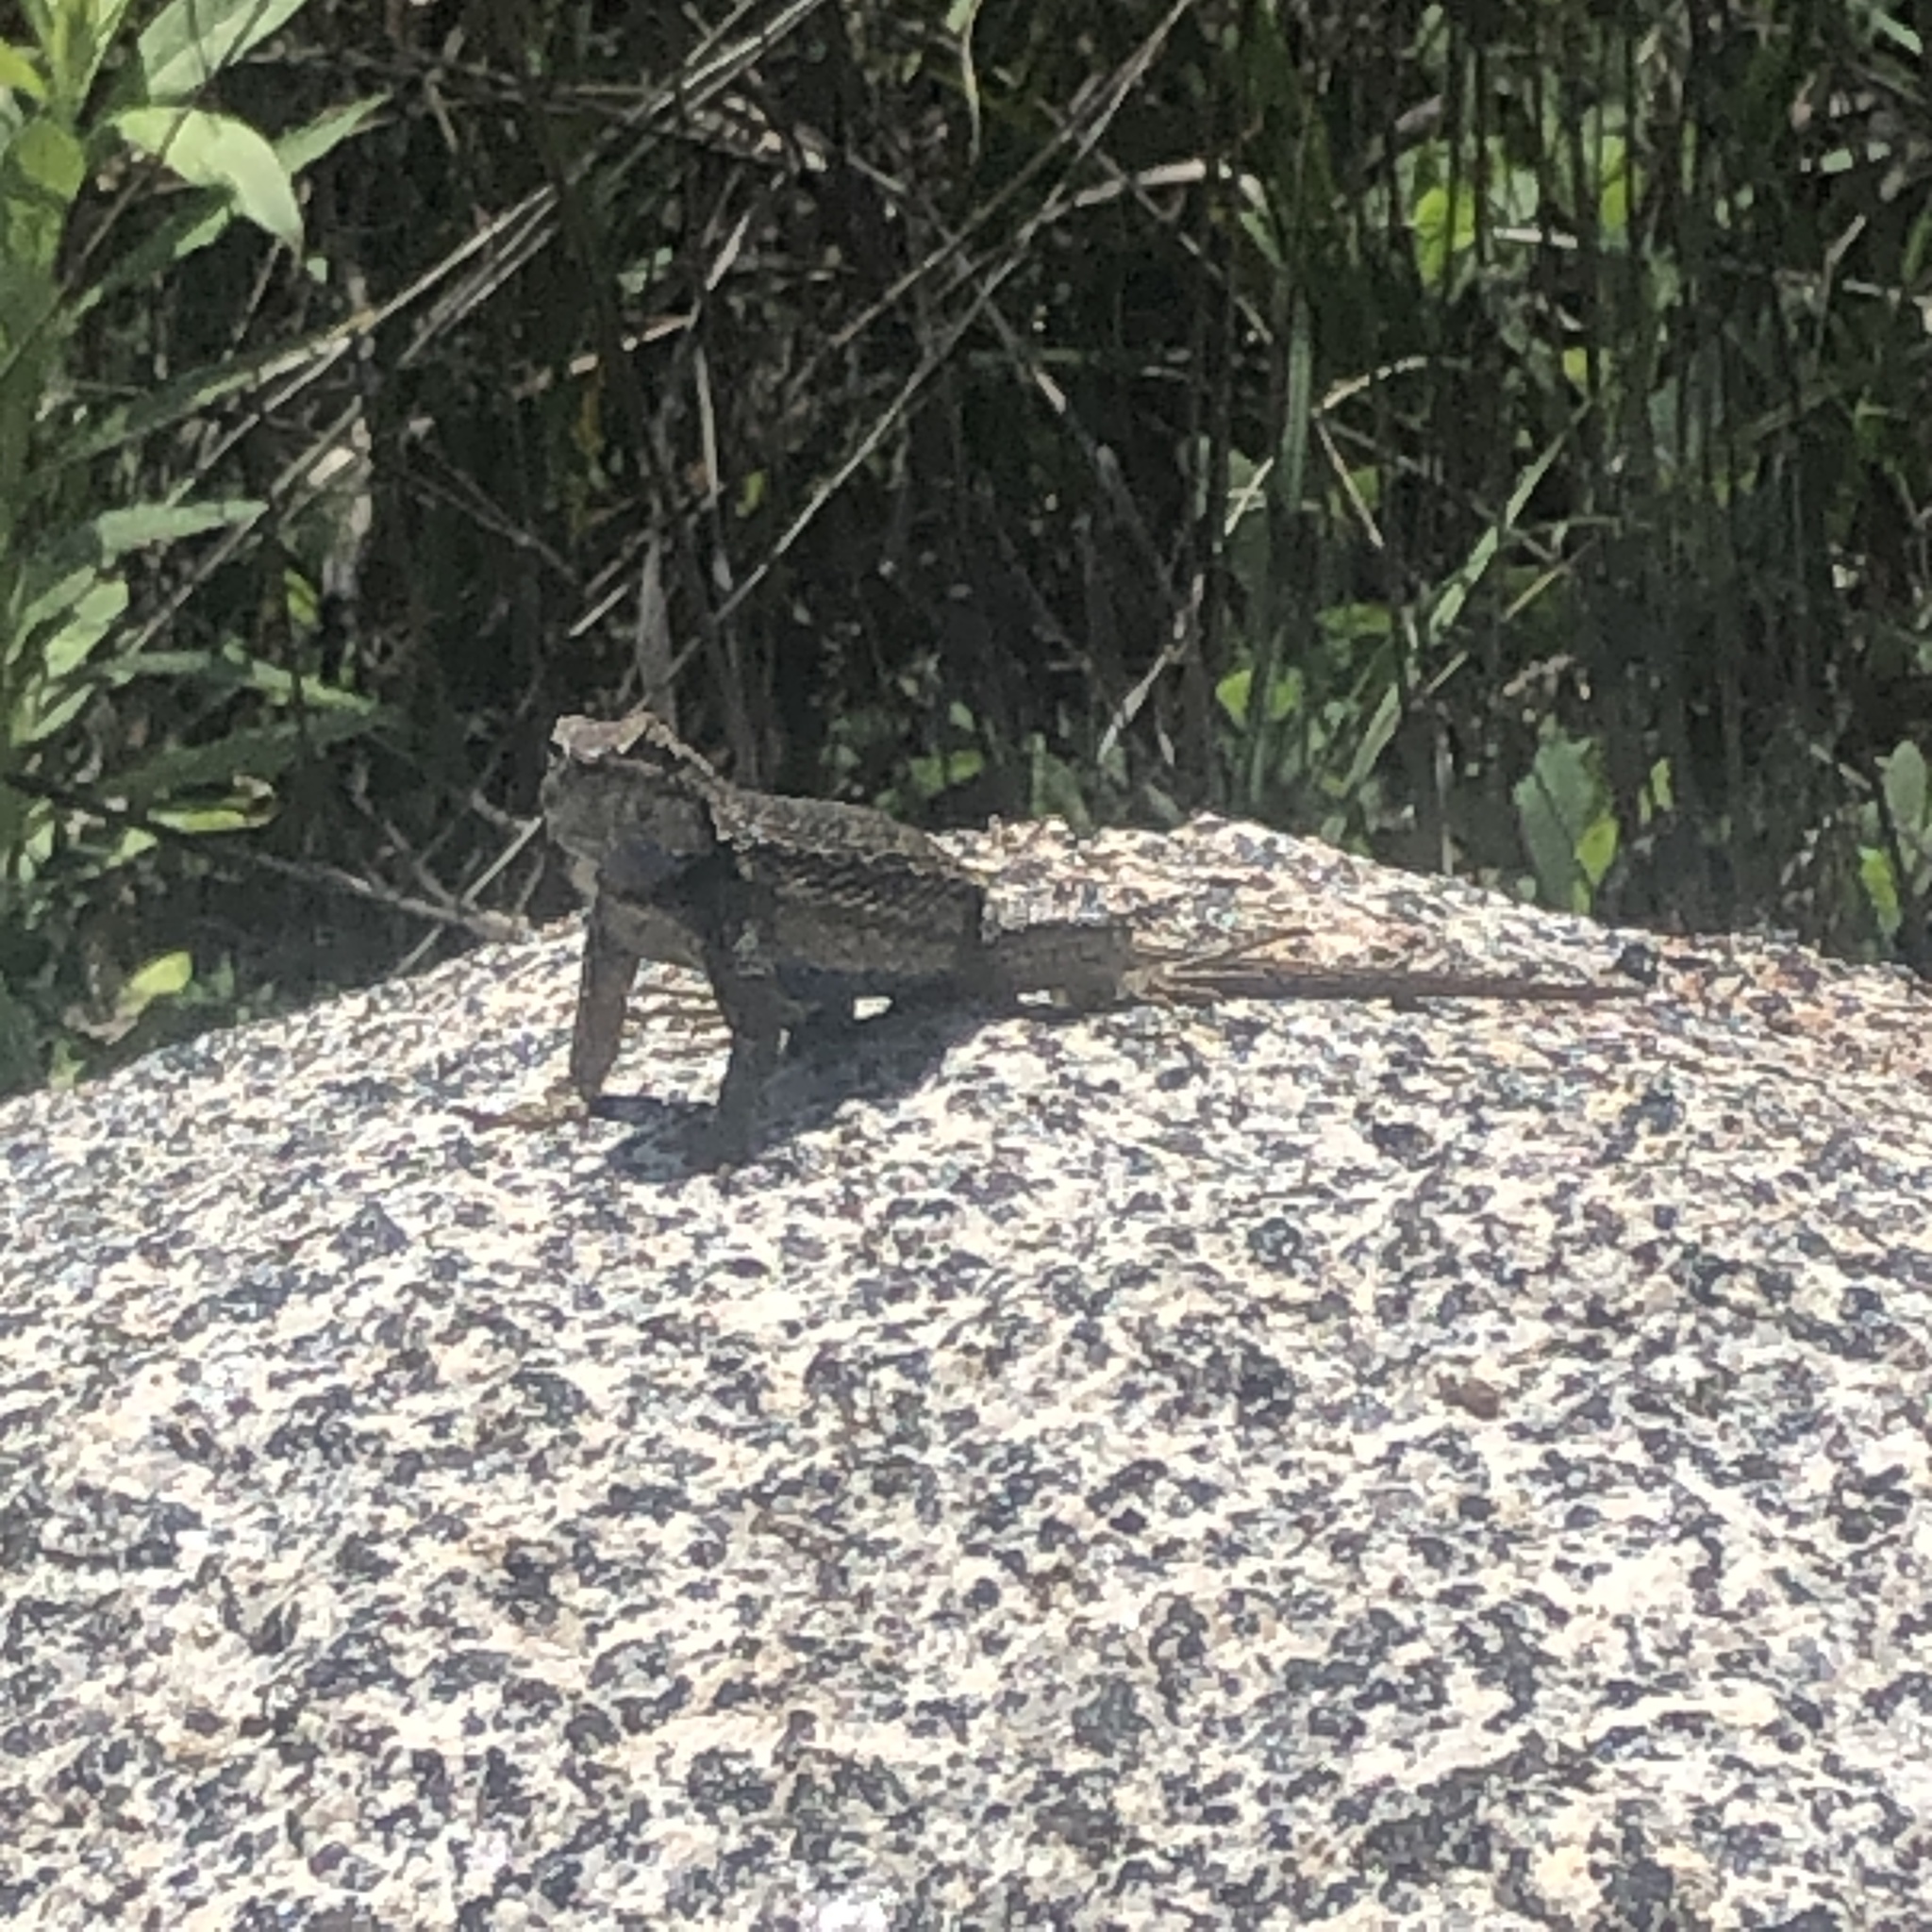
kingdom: Animalia
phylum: Chordata
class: Squamata
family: Phrynosomatidae
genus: Sceloporus
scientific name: Sceloporus occidentalis
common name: Western fence lizard
